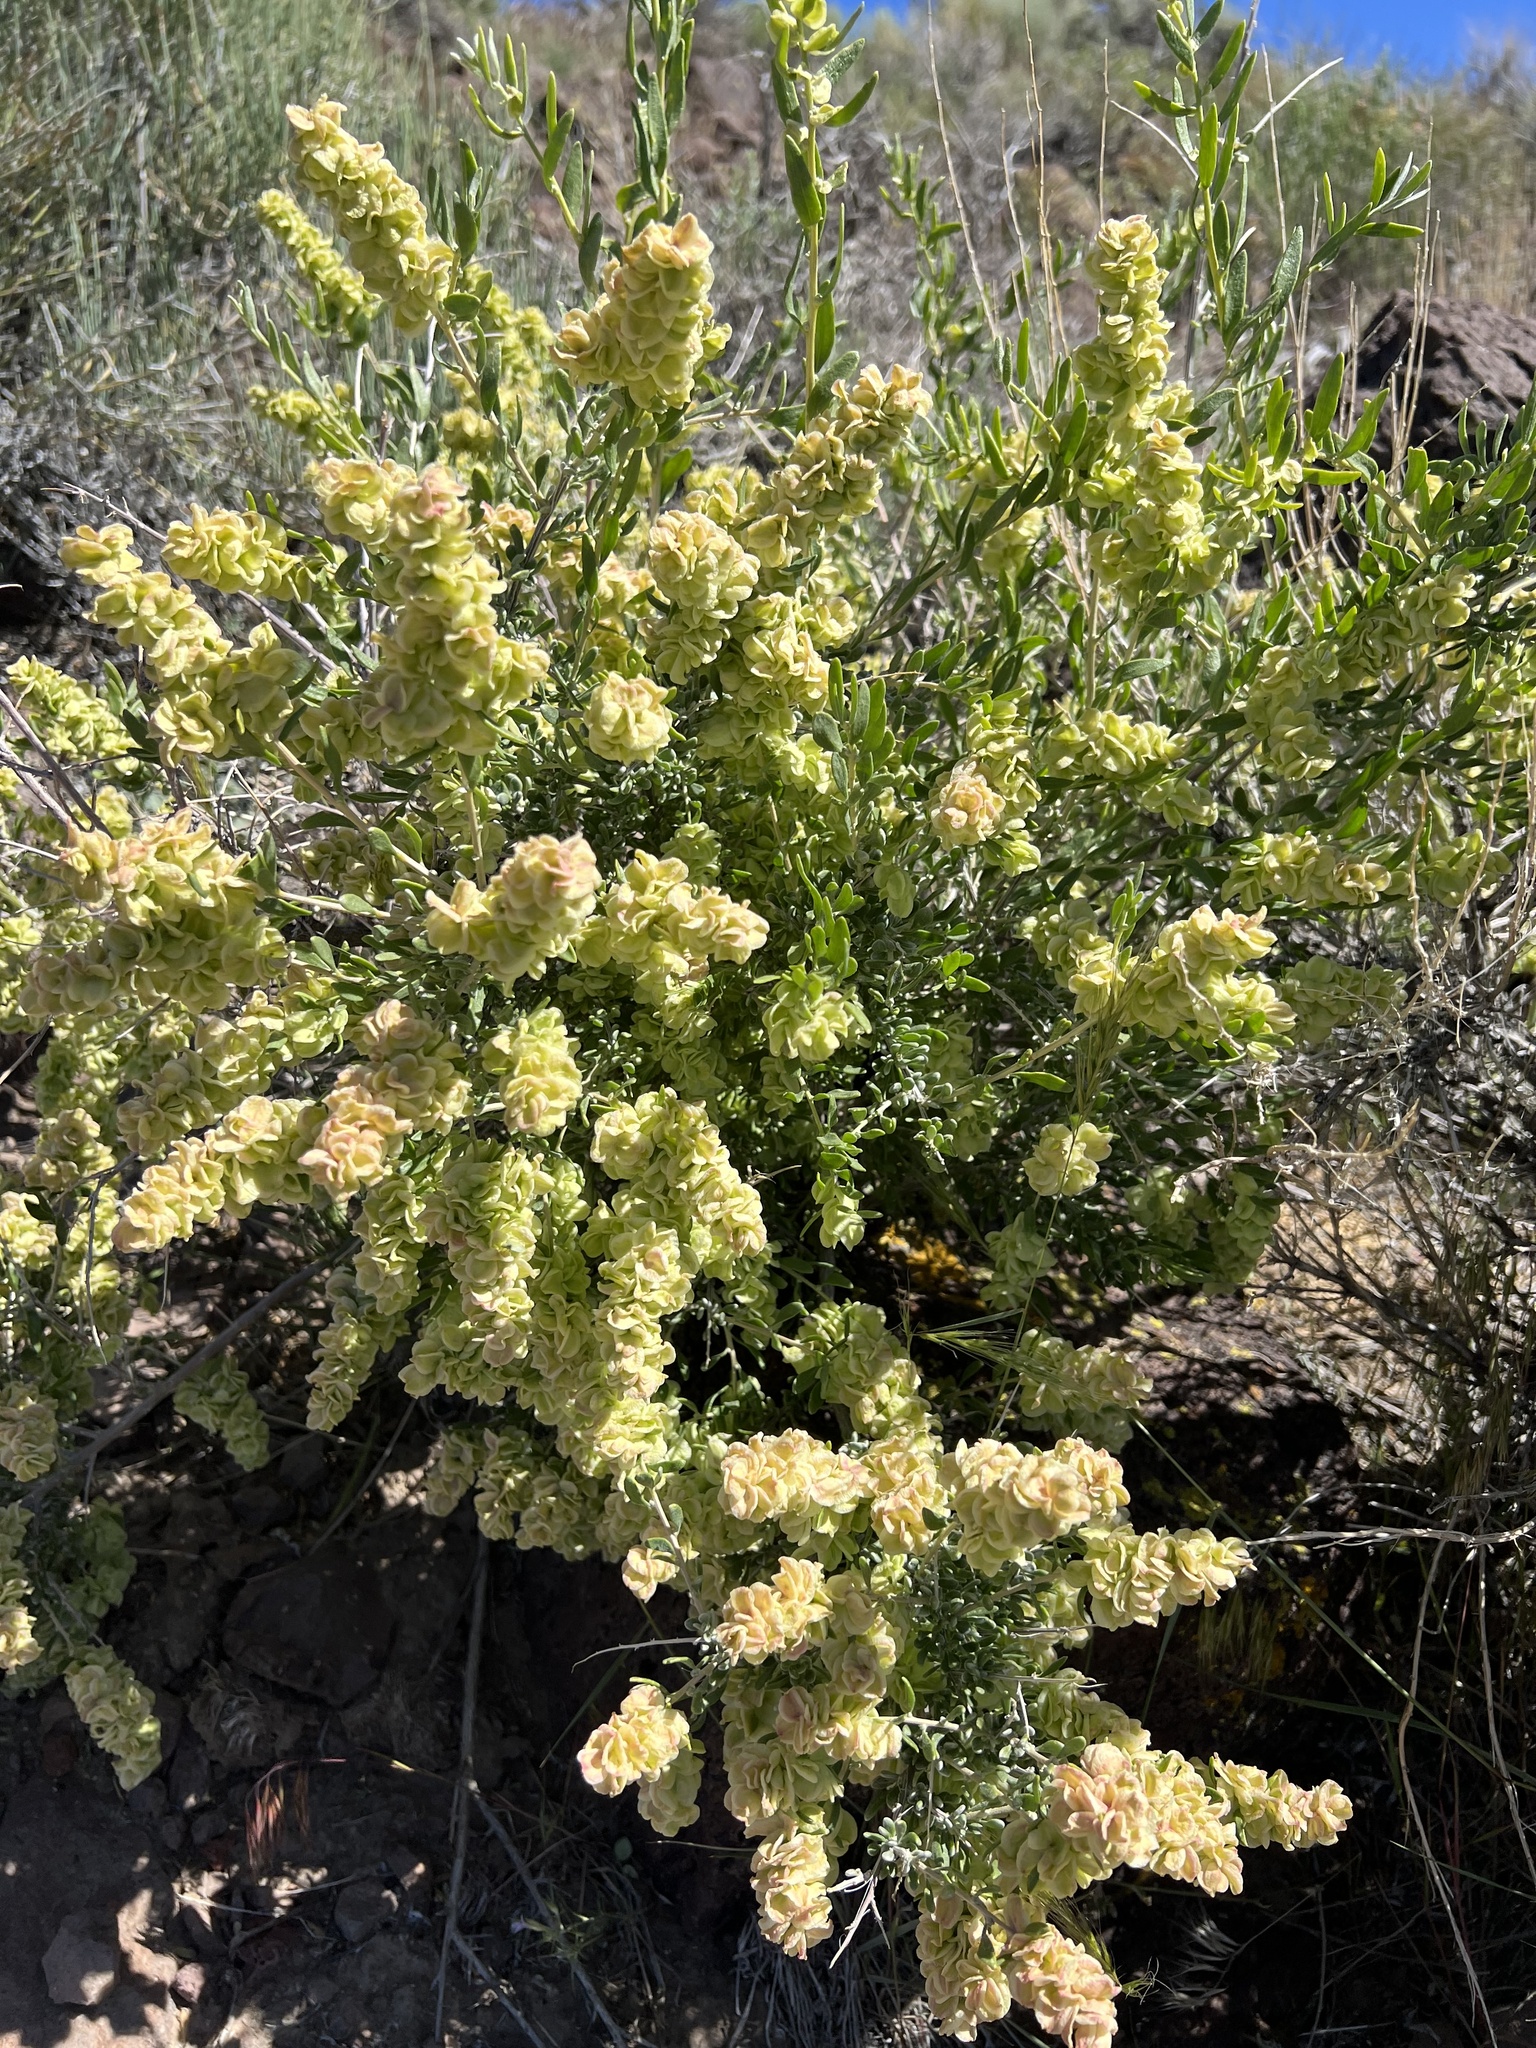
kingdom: Plantae
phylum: Tracheophyta
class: Magnoliopsida
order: Caryophyllales
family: Amaranthaceae
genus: Grayia
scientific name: Grayia spinosa
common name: Spiny hopsage
